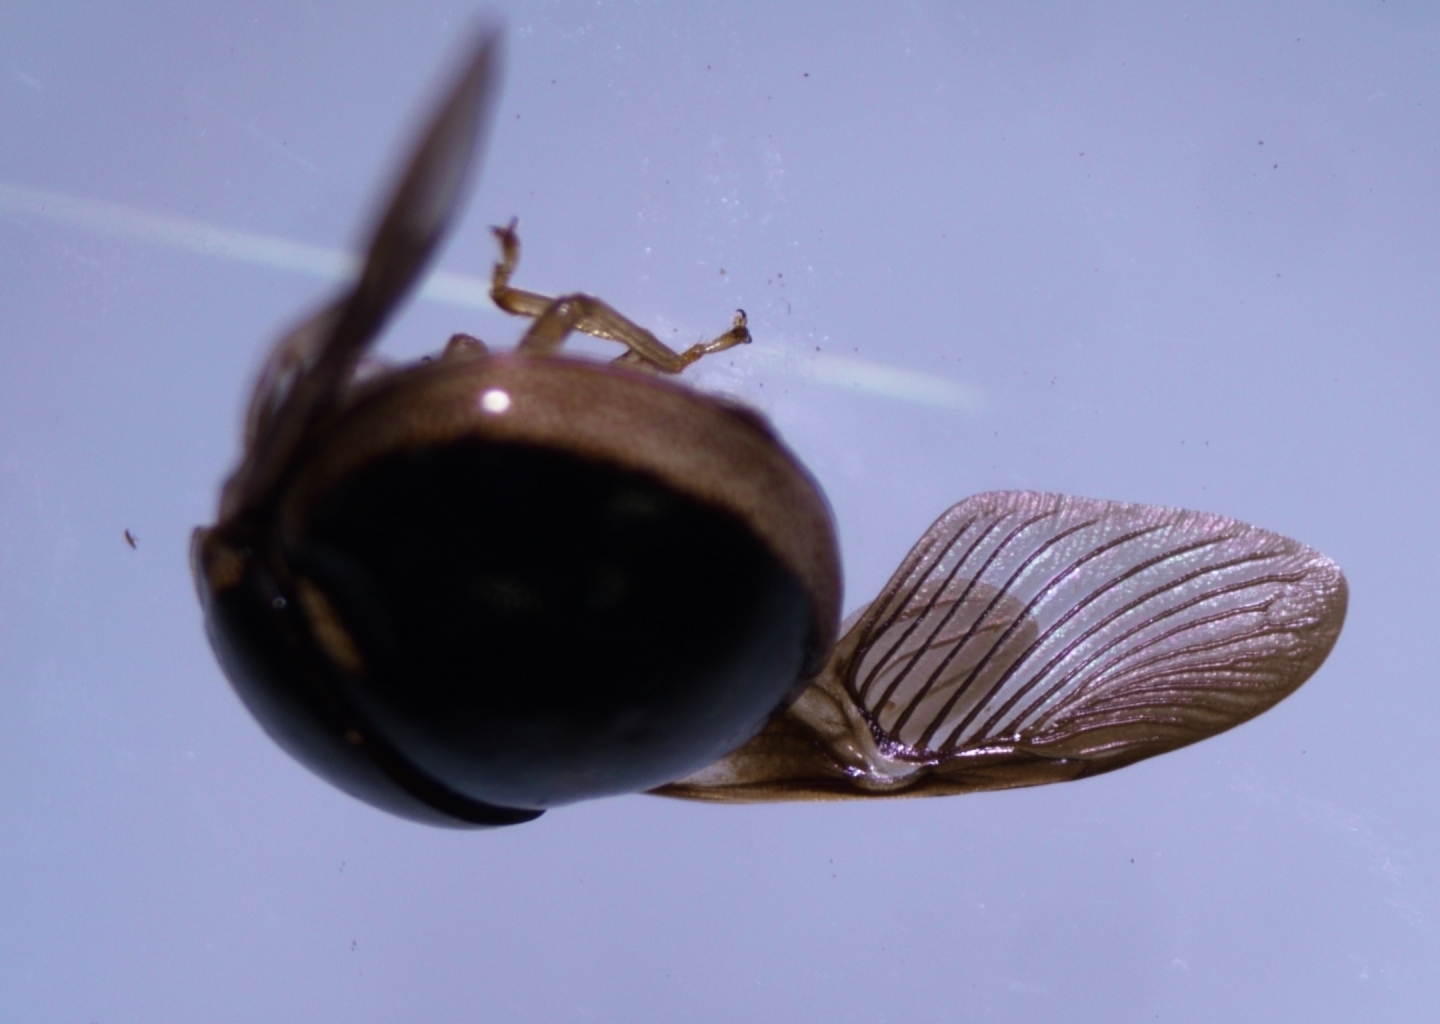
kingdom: Animalia
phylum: Arthropoda
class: Insecta
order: Hemiptera
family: Plataspidae
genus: Coptosoma
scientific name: Coptosoma
